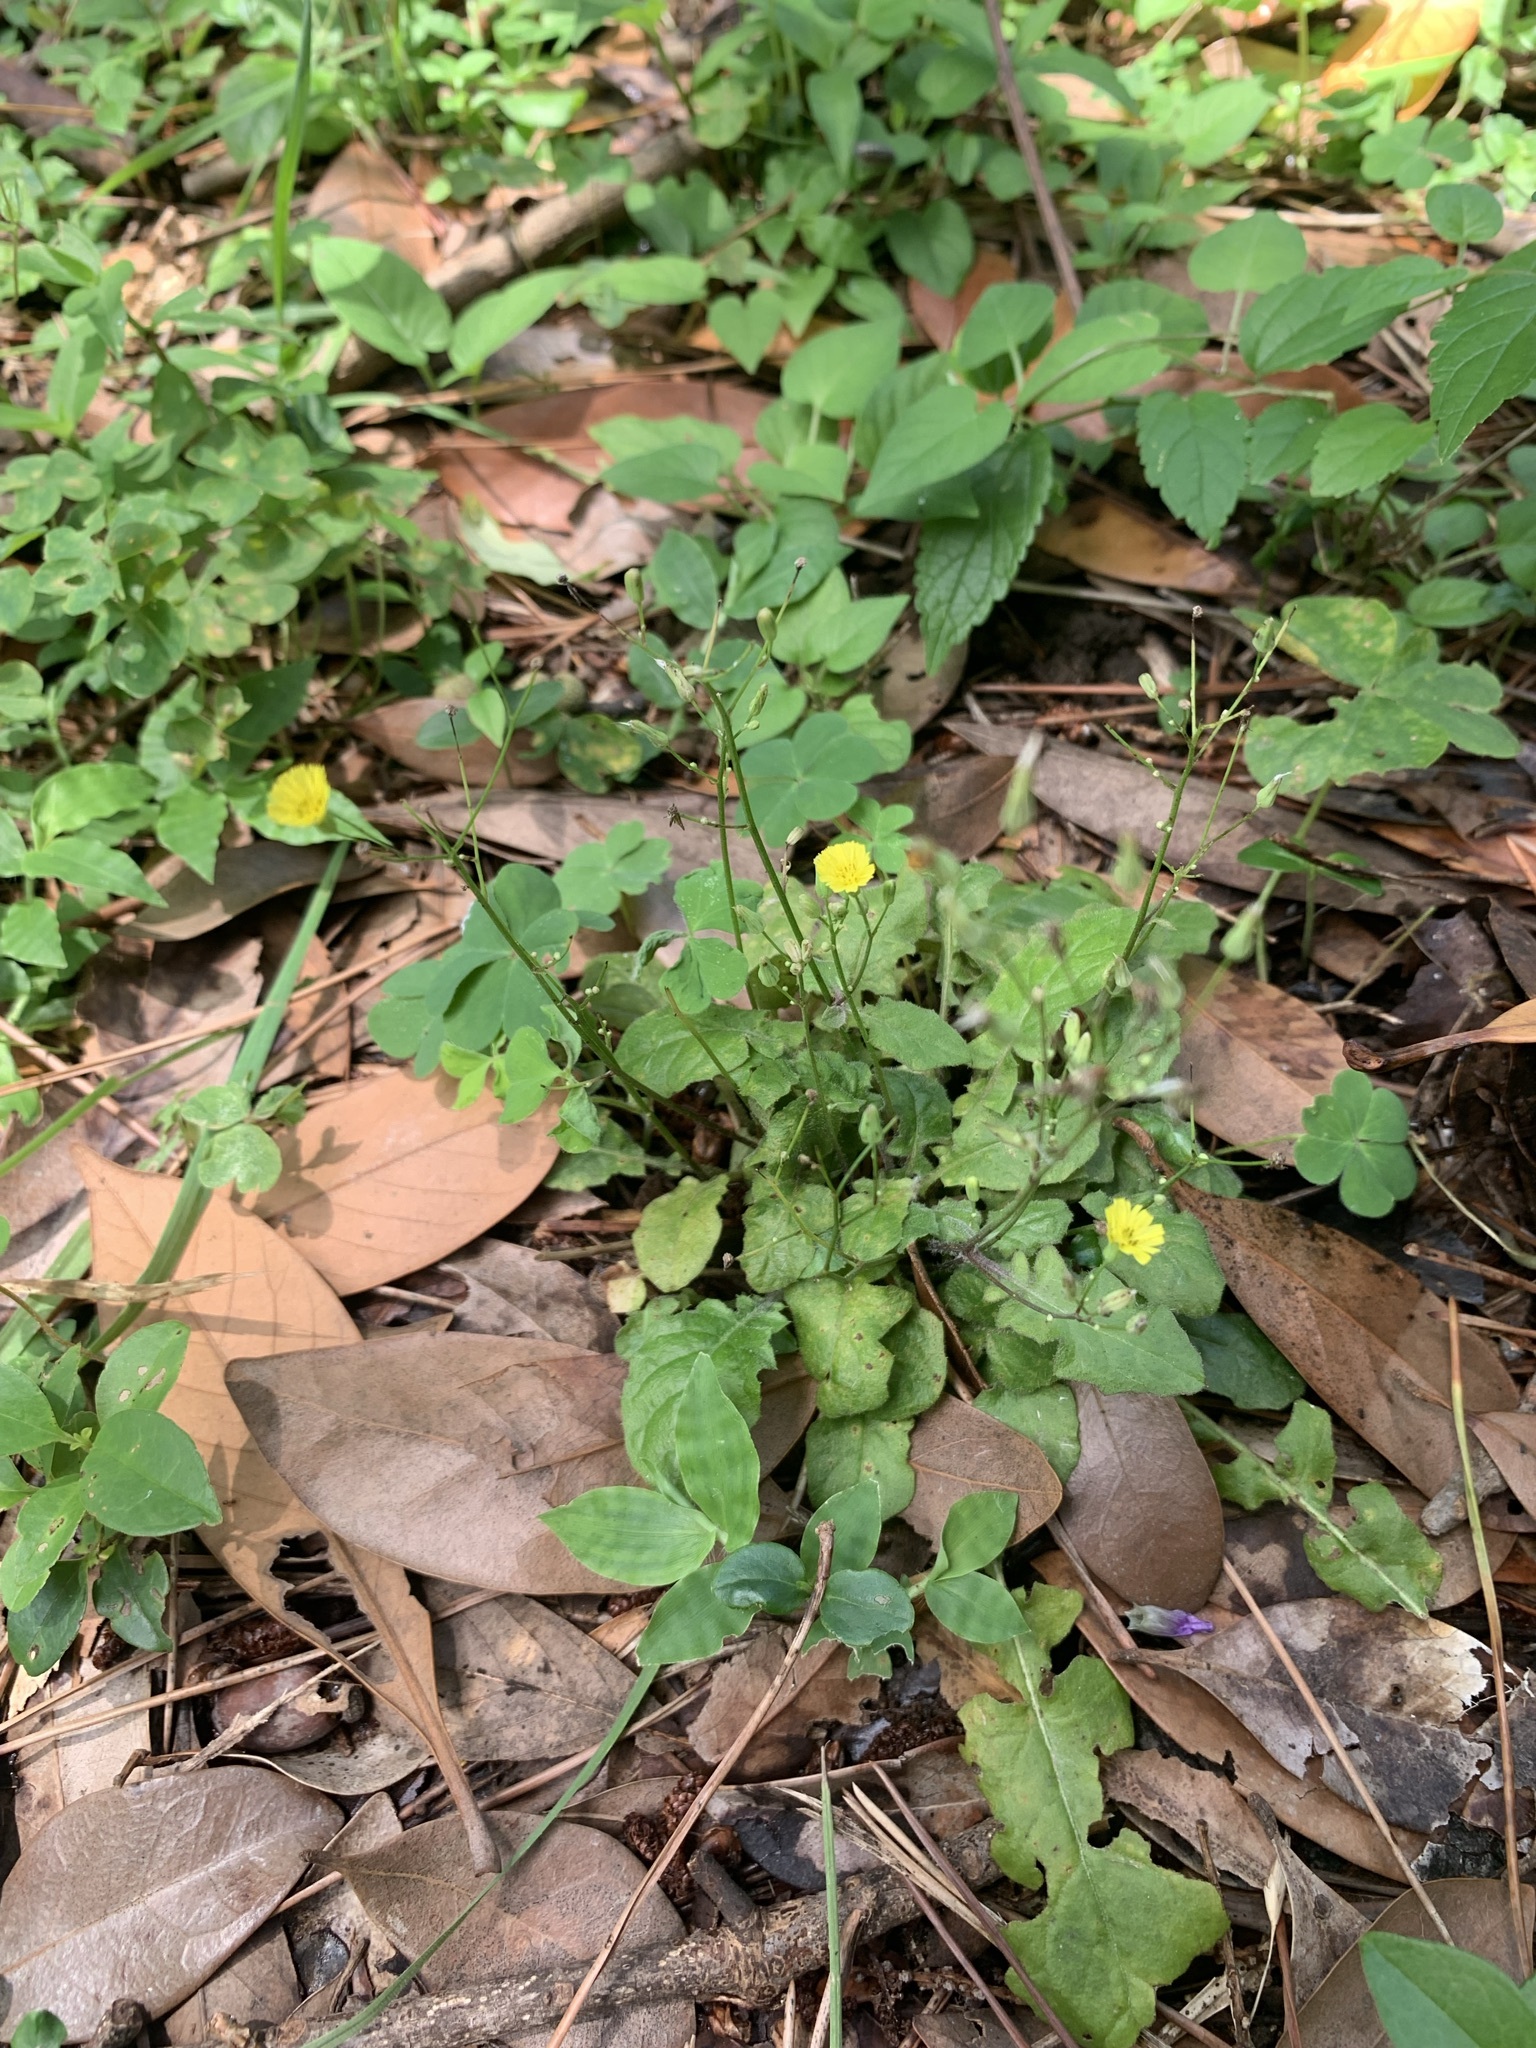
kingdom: Plantae
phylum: Tracheophyta
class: Magnoliopsida
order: Asterales
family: Asteraceae
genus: Youngia
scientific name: Youngia japonica
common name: Oriental false hawksbeard
